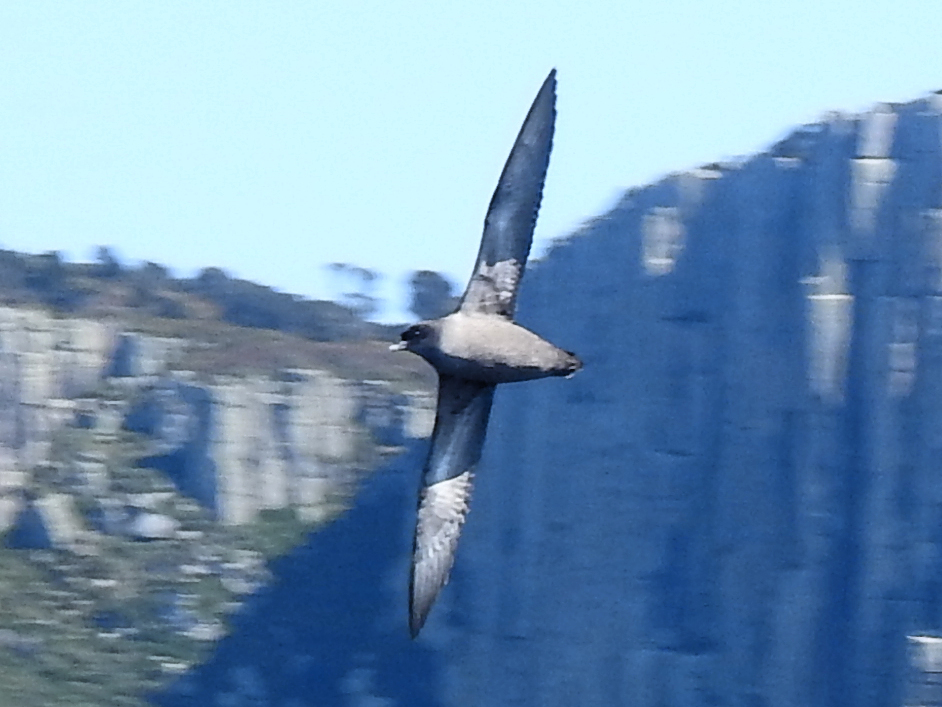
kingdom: Animalia
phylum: Chordata
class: Aves
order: Procellariiformes
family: Procellariidae
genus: Puffinus
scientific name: Puffinus tenuirostris
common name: Short-tailed shearwater
